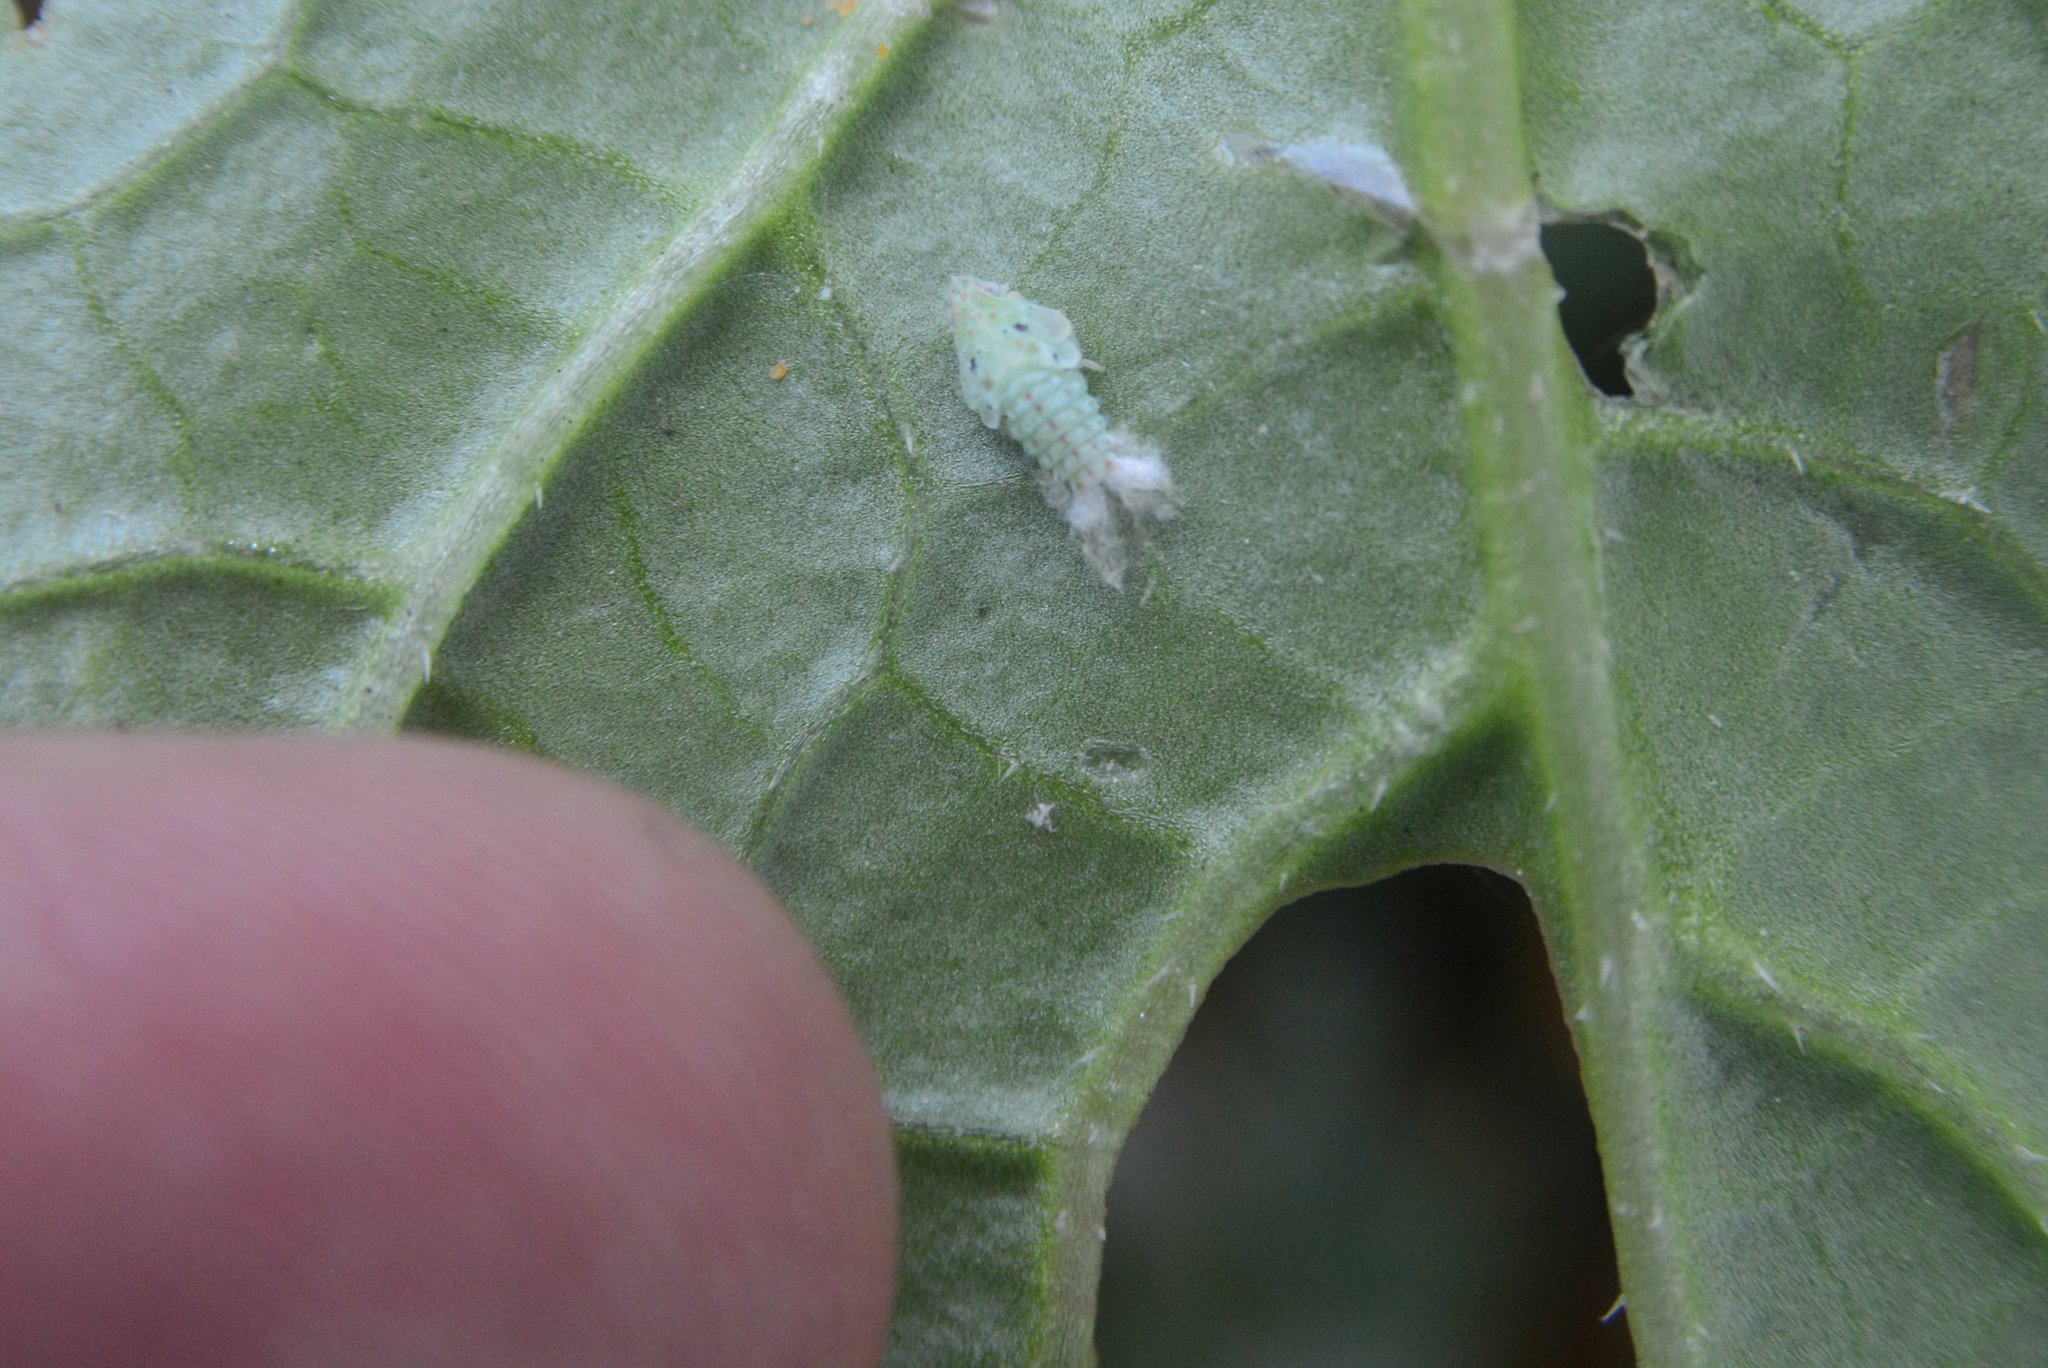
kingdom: Animalia
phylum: Arthropoda
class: Insecta
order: Hemiptera
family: Flatidae
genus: Siphanta
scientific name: Siphanta acuta
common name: Torpedo bug
